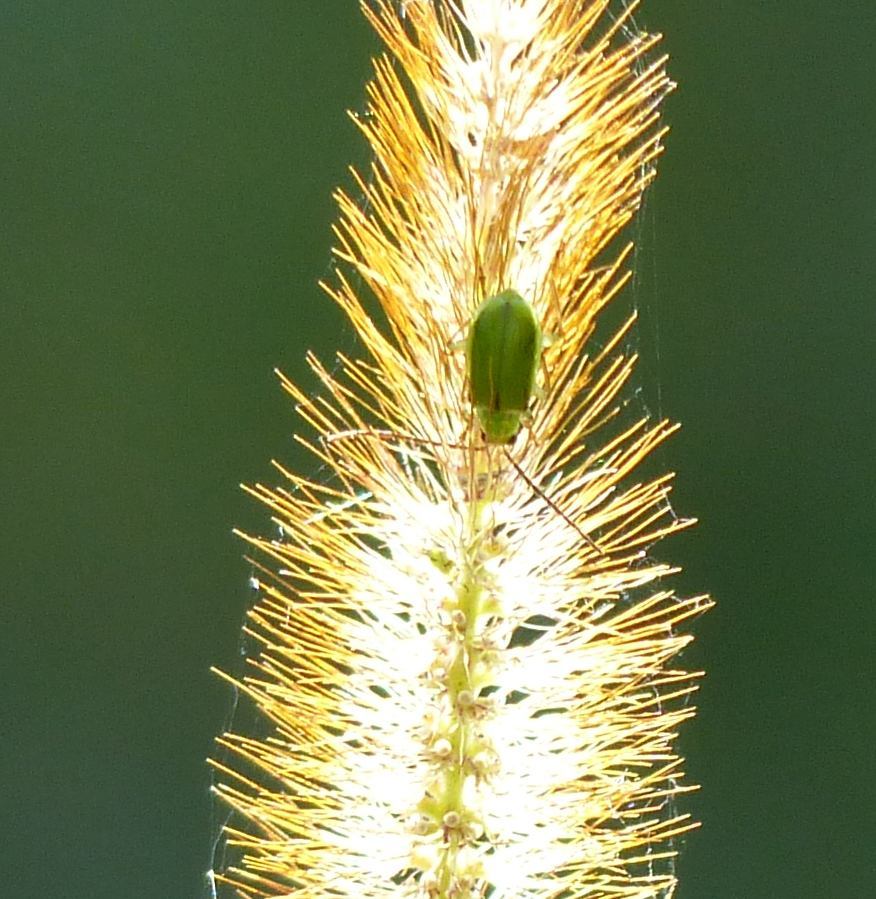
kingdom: Animalia
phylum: Arthropoda
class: Insecta
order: Coleoptera
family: Chrysomelidae
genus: Diabrotica
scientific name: Diabrotica barberi
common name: Northern corn rootworm
